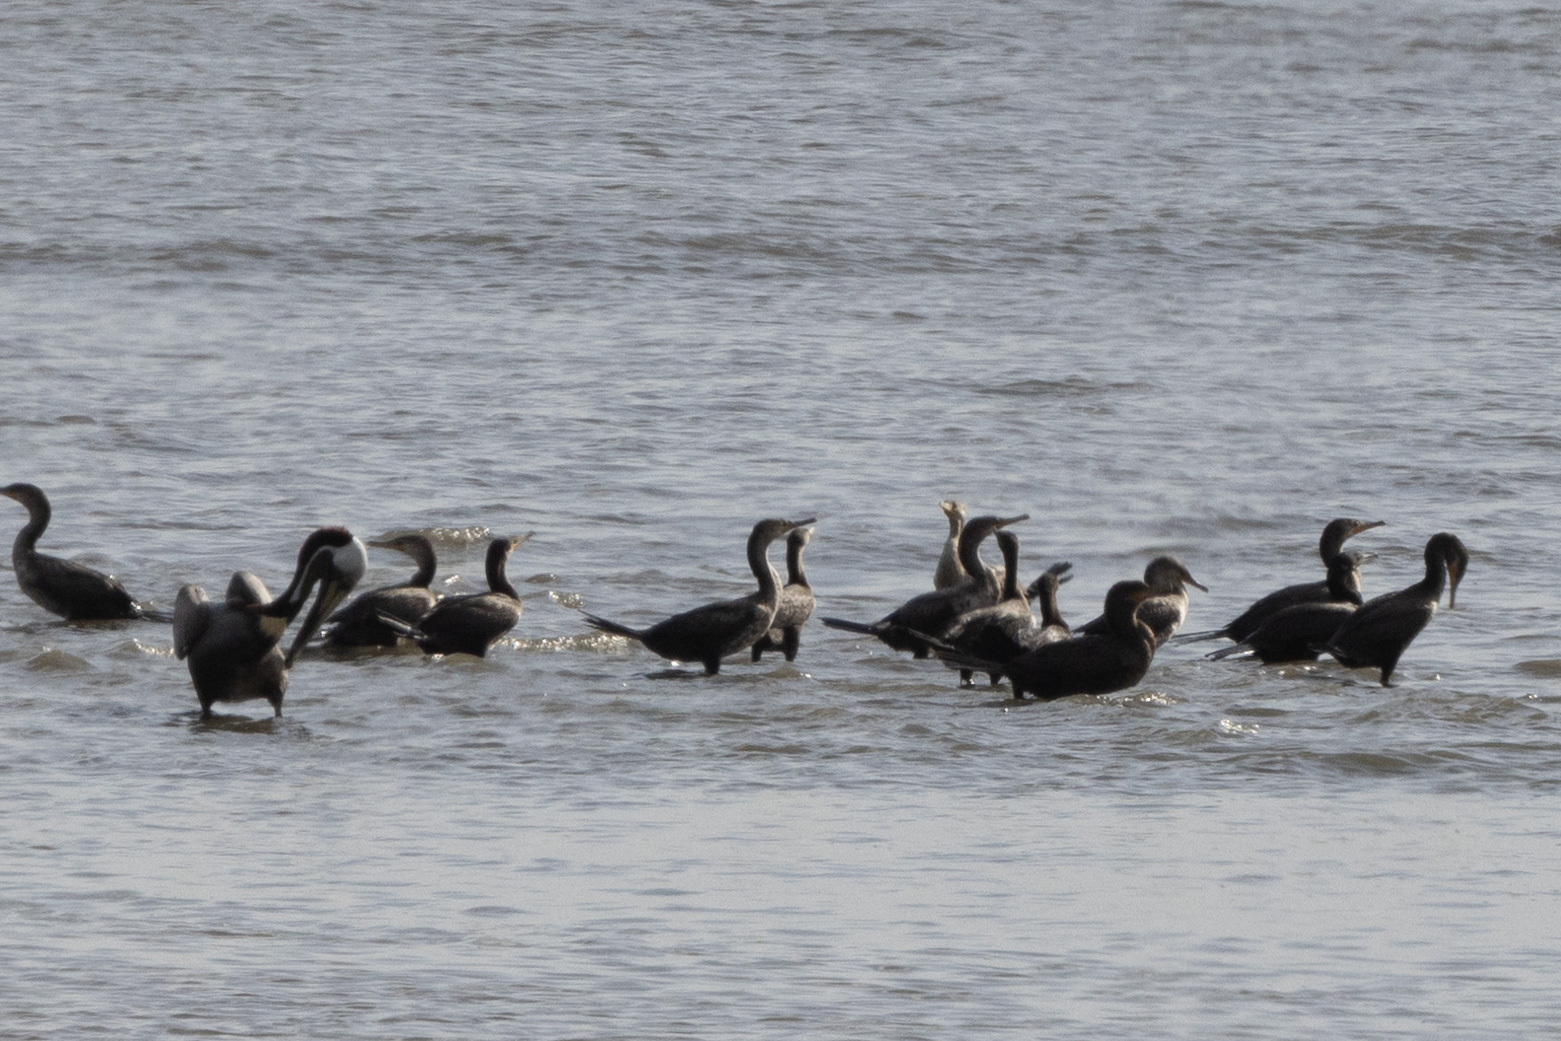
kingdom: Animalia
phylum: Chordata
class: Aves
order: Suliformes
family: Phalacrocoracidae
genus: Phalacrocorax
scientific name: Phalacrocorax brasilianus
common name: Neotropic cormorant
